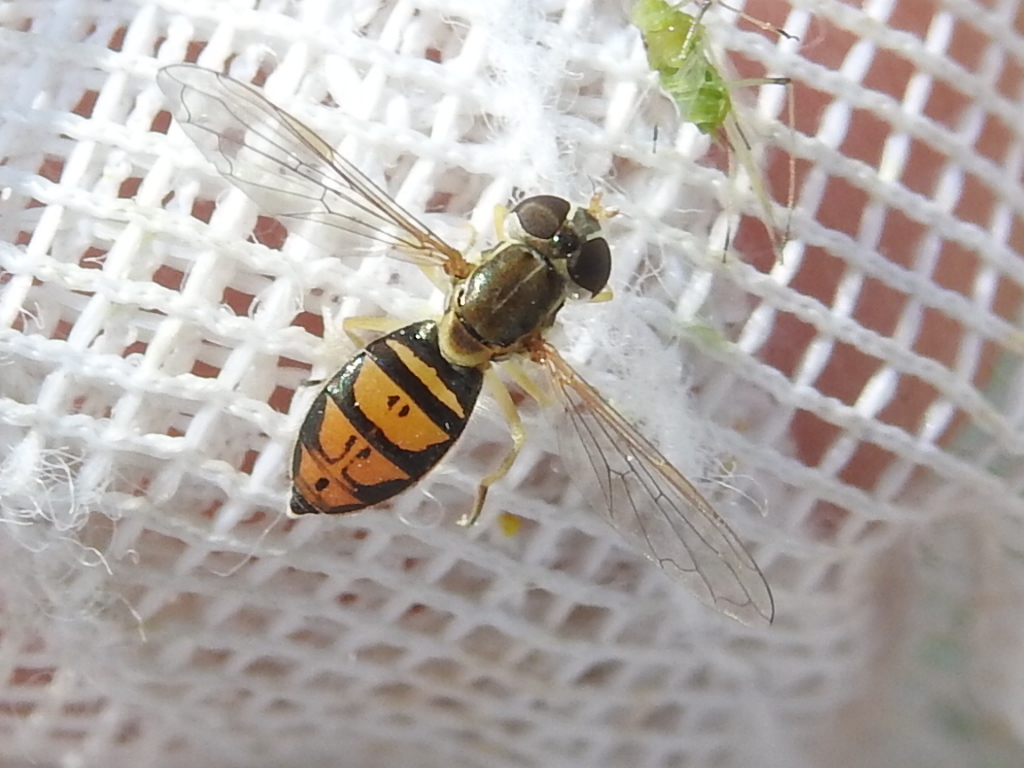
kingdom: Animalia
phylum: Arthropoda
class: Insecta
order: Diptera
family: Syrphidae
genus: Toxomerus
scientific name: Toxomerus marginatus
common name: Syrphid fly
